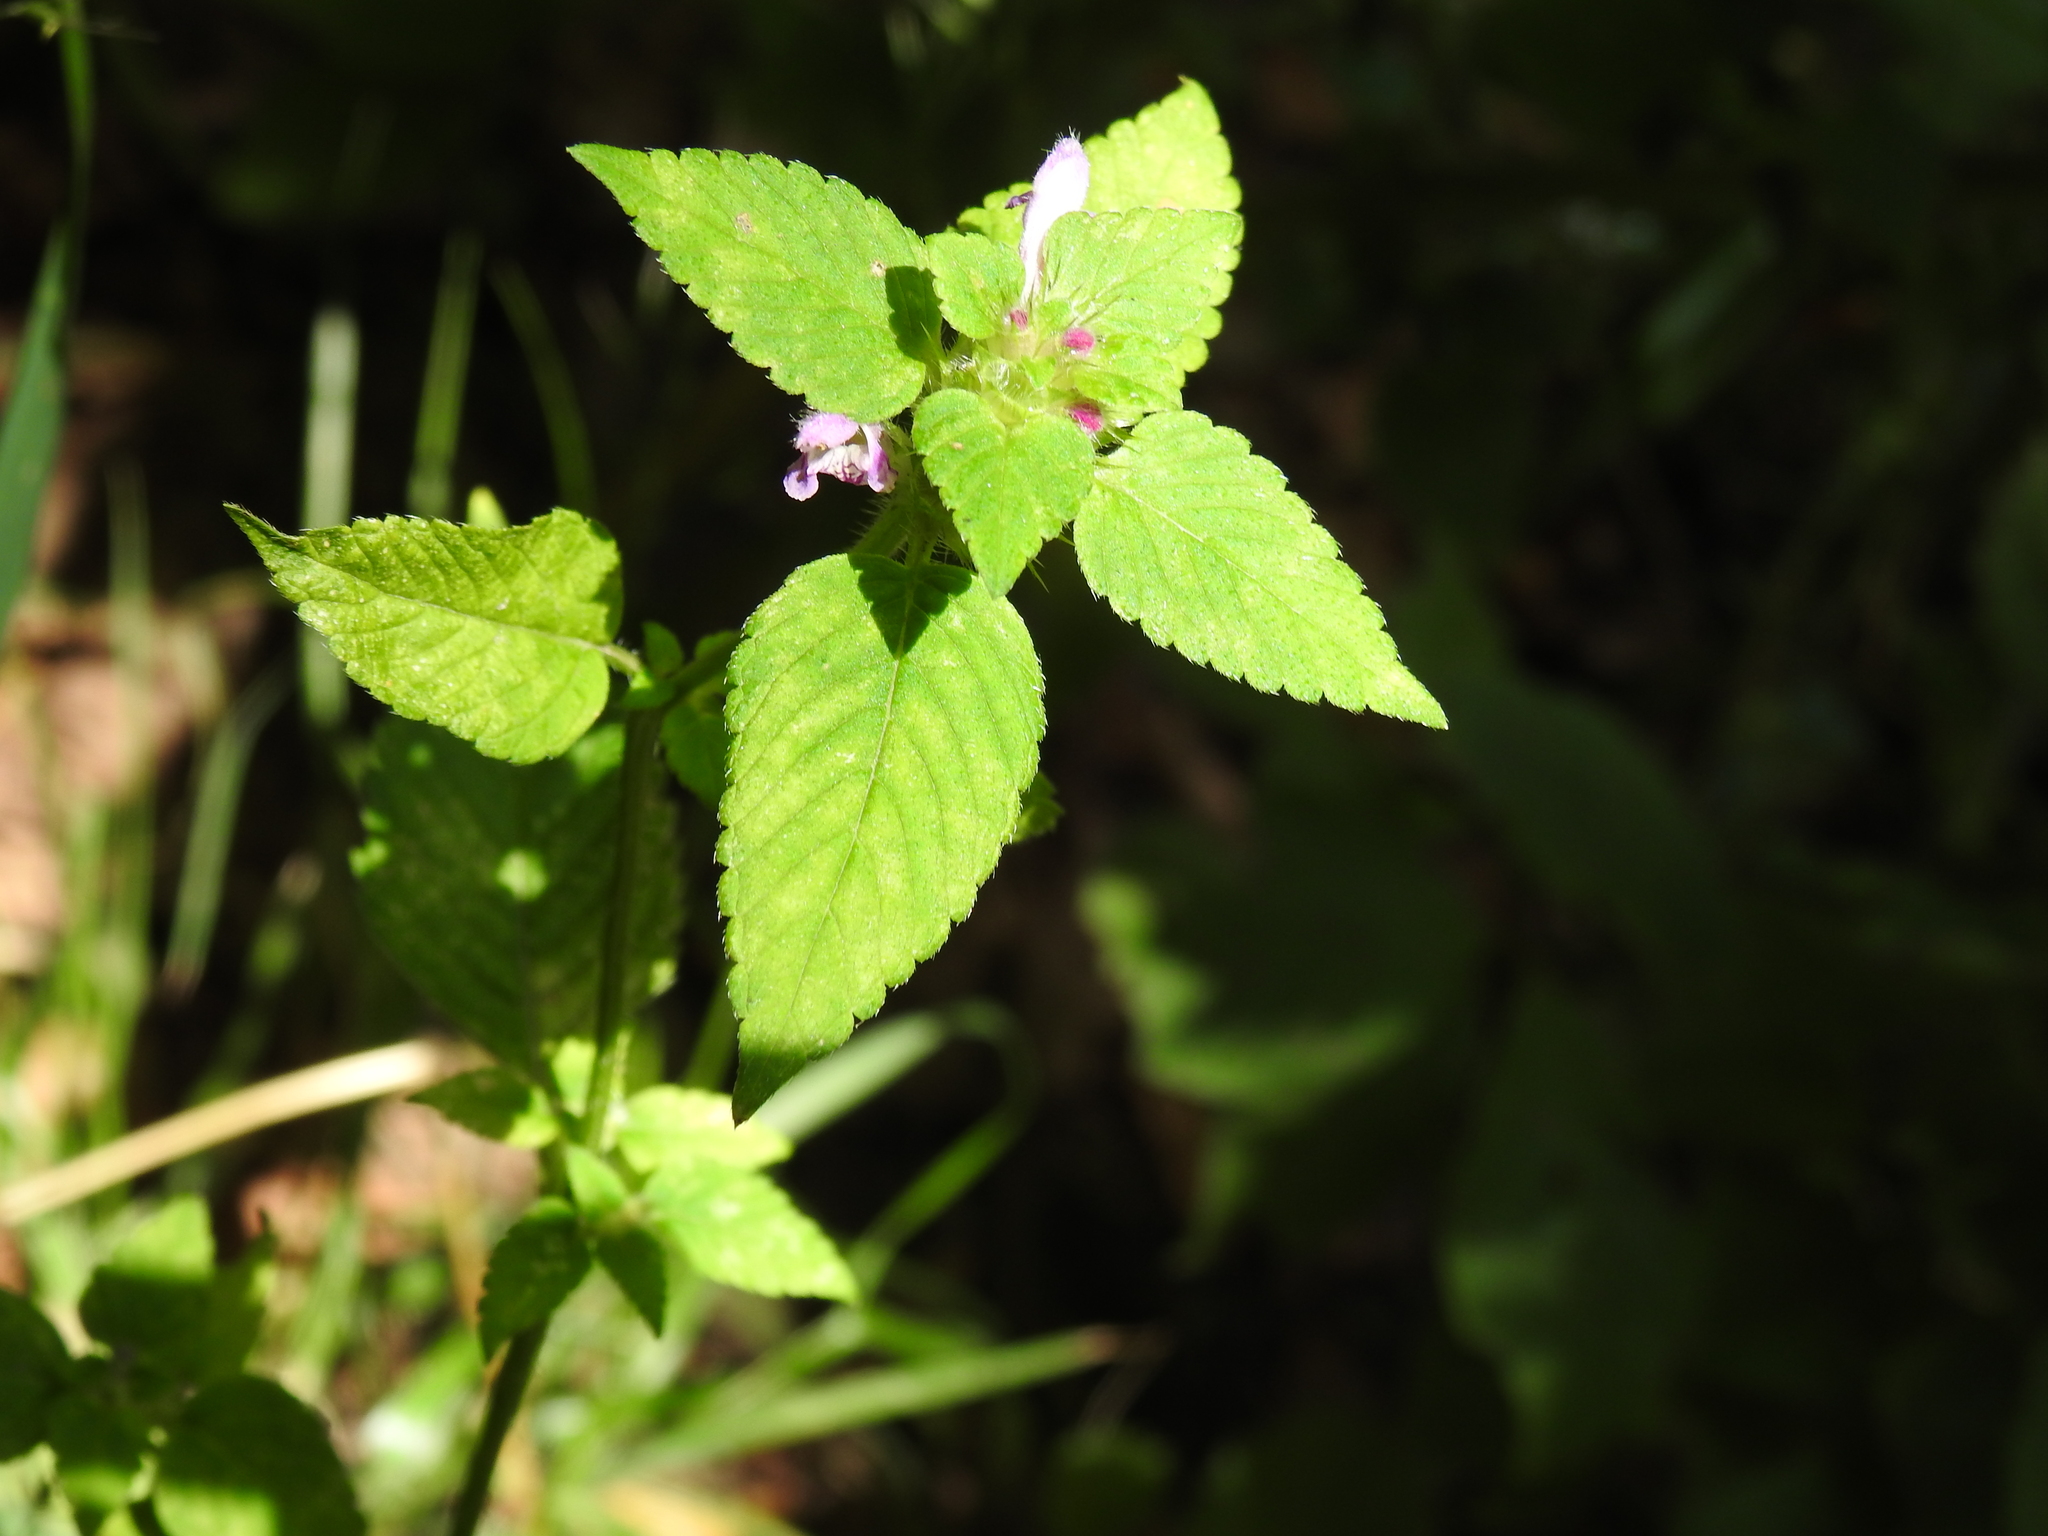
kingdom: Plantae
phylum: Tracheophyta
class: Magnoliopsida
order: Lamiales
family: Lamiaceae
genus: Galeopsis
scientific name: Galeopsis pubescens
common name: Downy hemp-nettle
